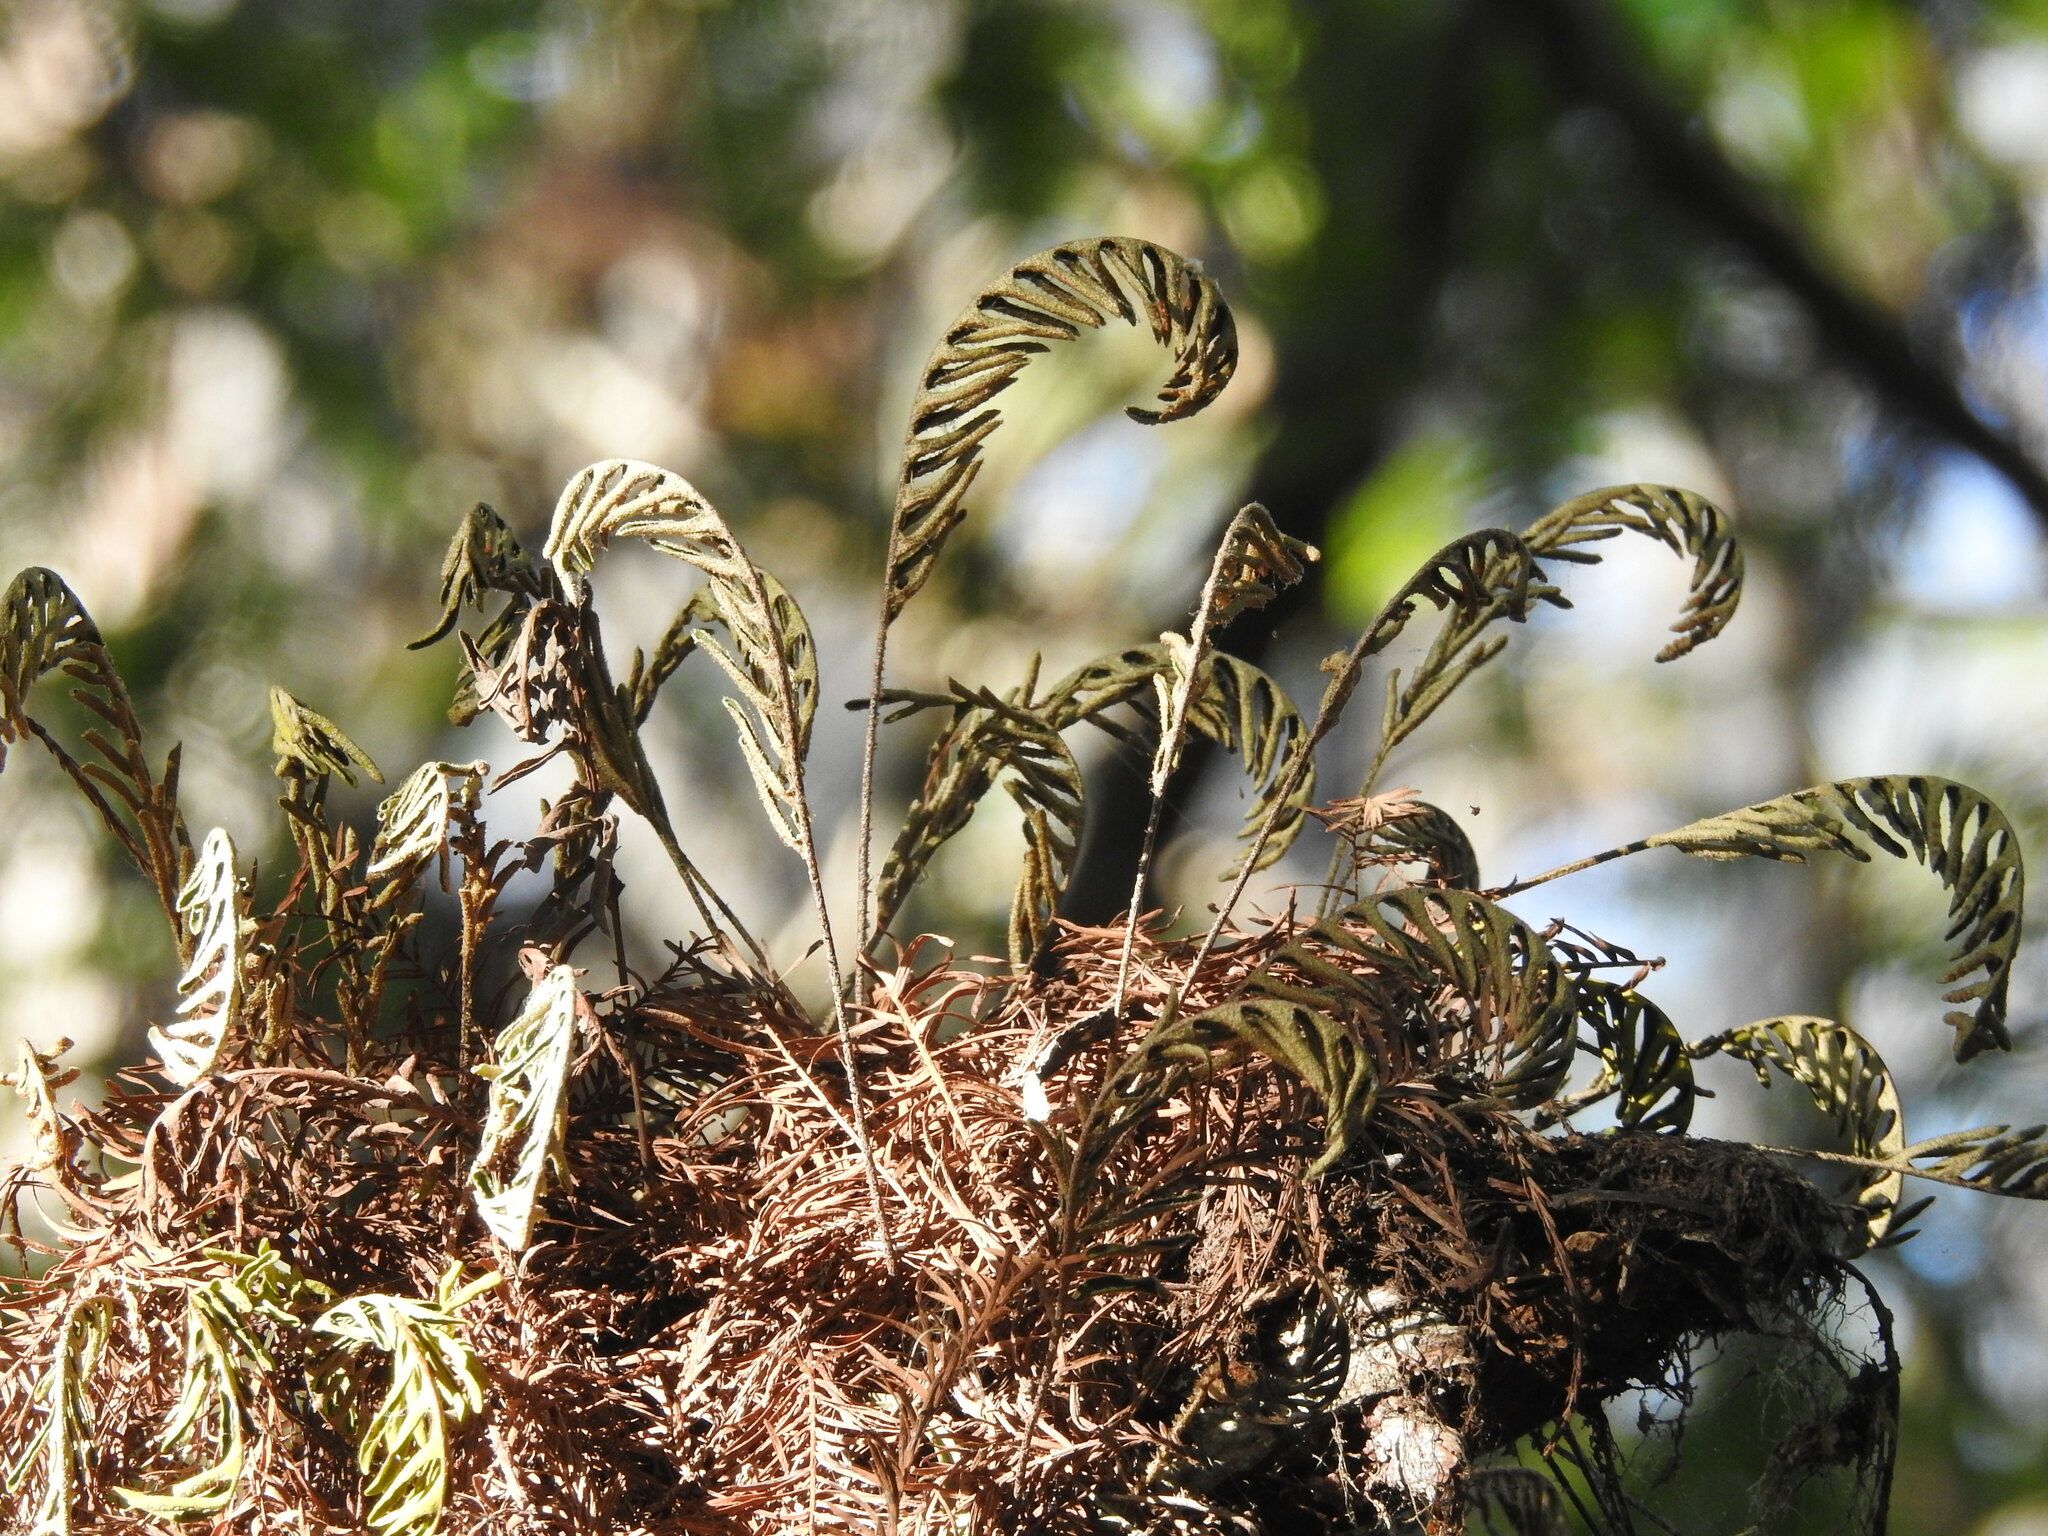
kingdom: Plantae
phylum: Tracheophyta
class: Polypodiopsida
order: Polypodiales
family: Polypodiaceae
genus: Pleopeltis
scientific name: Pleopeltis michauxiana
